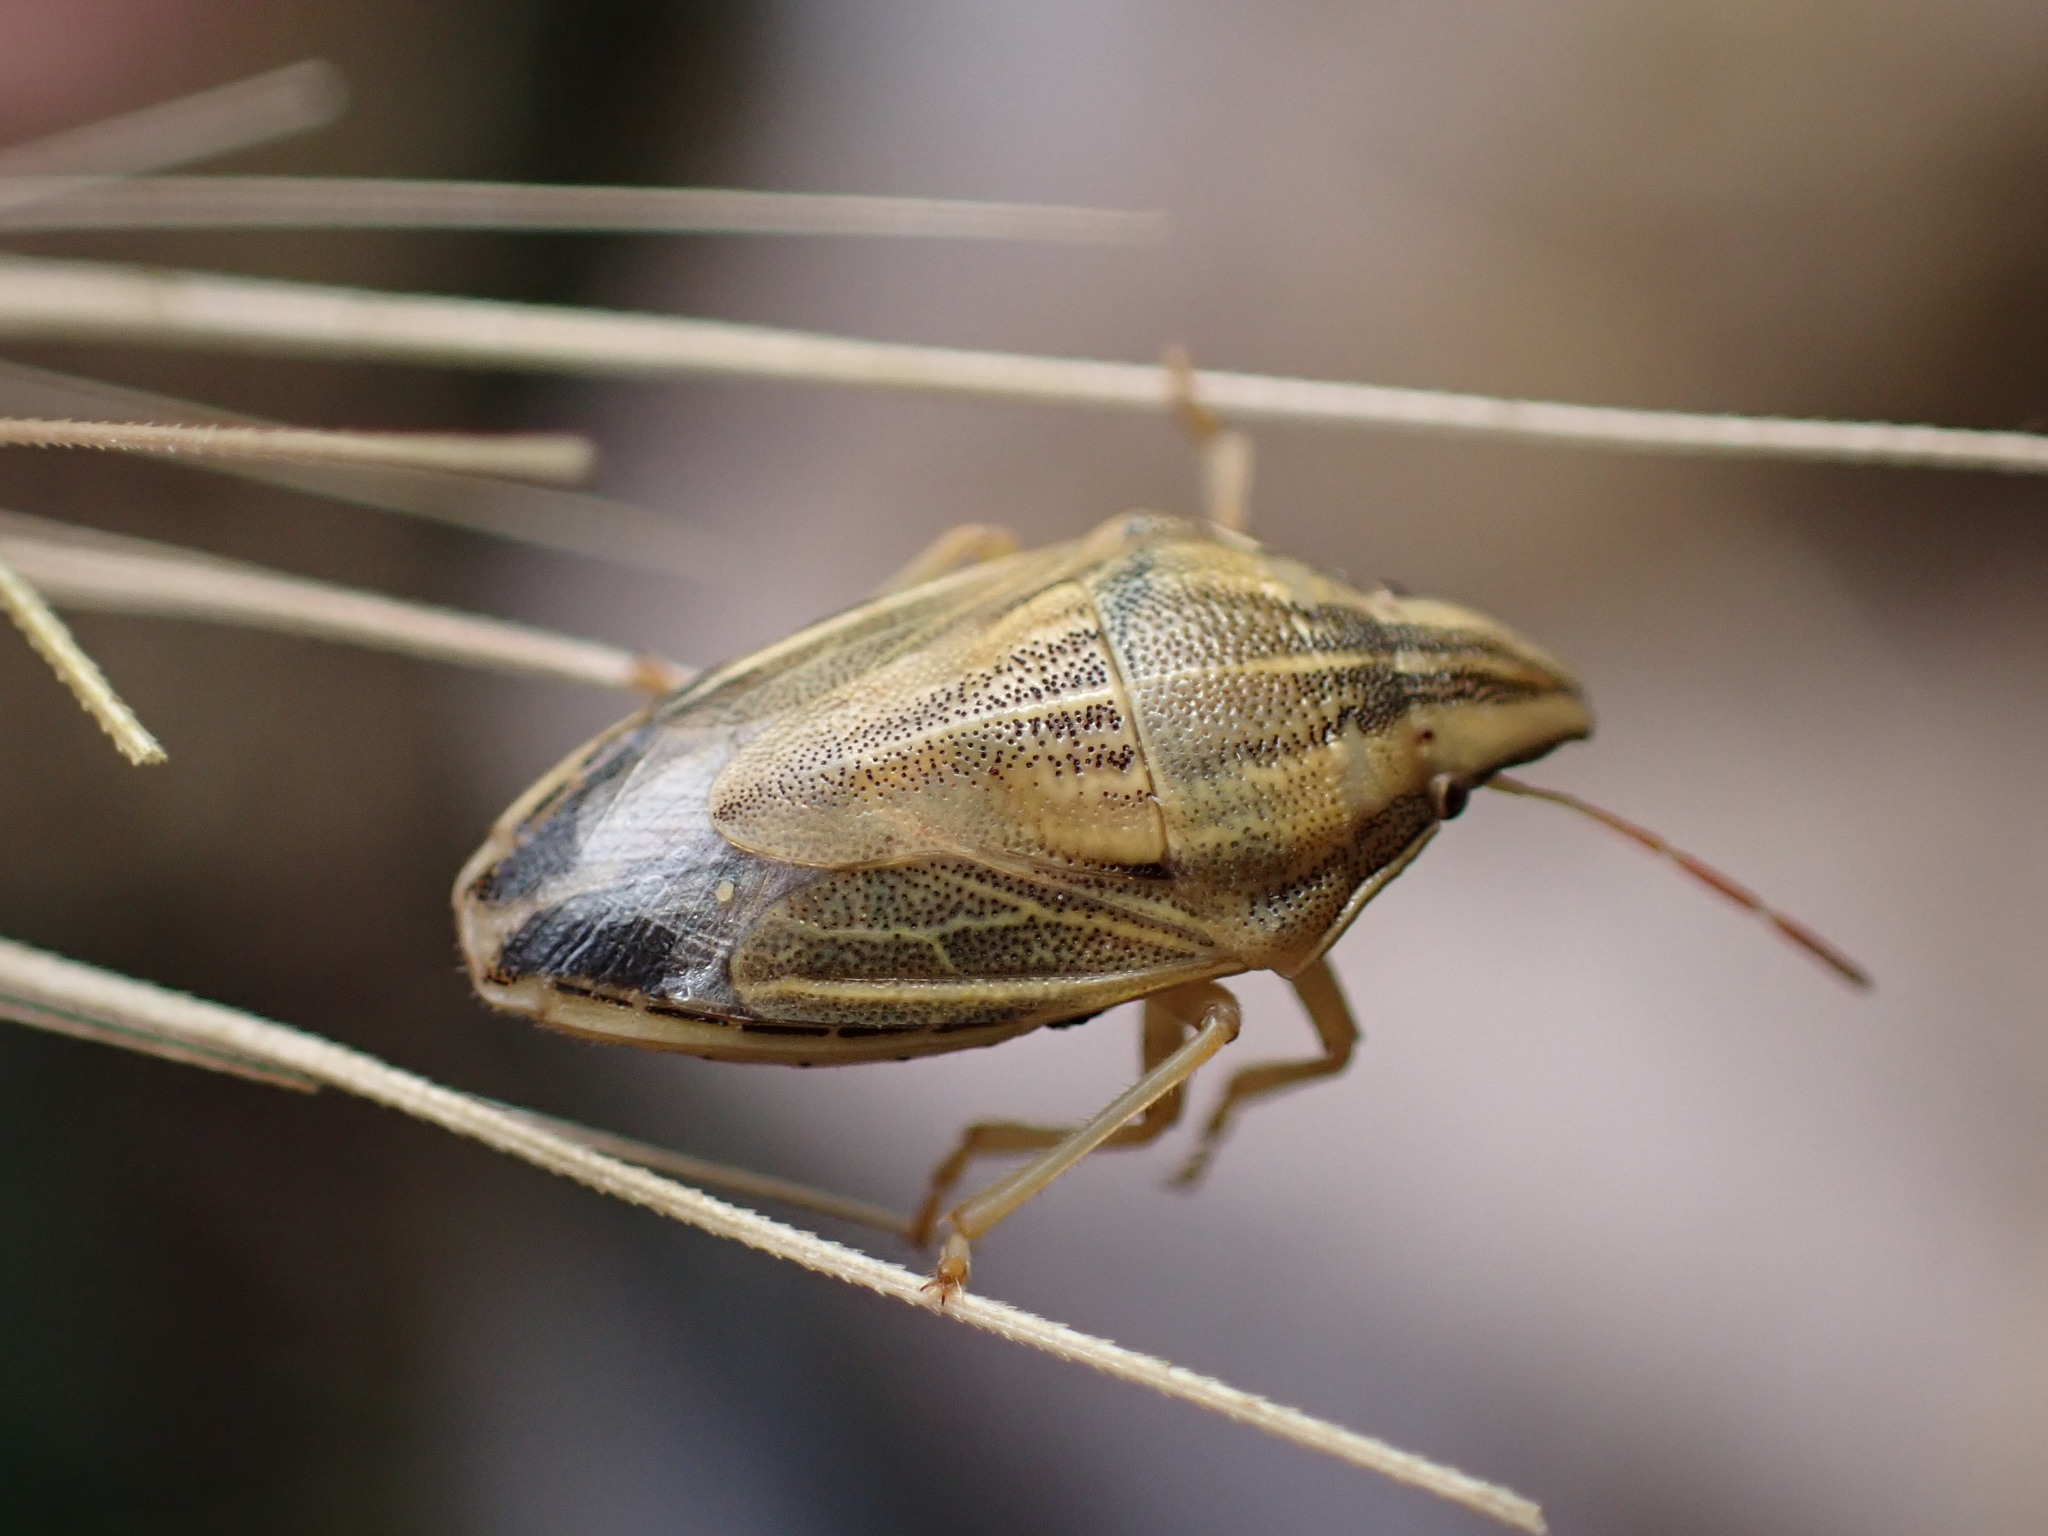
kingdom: Animalia
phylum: Arthropoda
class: Insecta
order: Hemiptera
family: Pentatomidae
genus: Aelia
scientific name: Aelia acuminata
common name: Bishop's mitre
